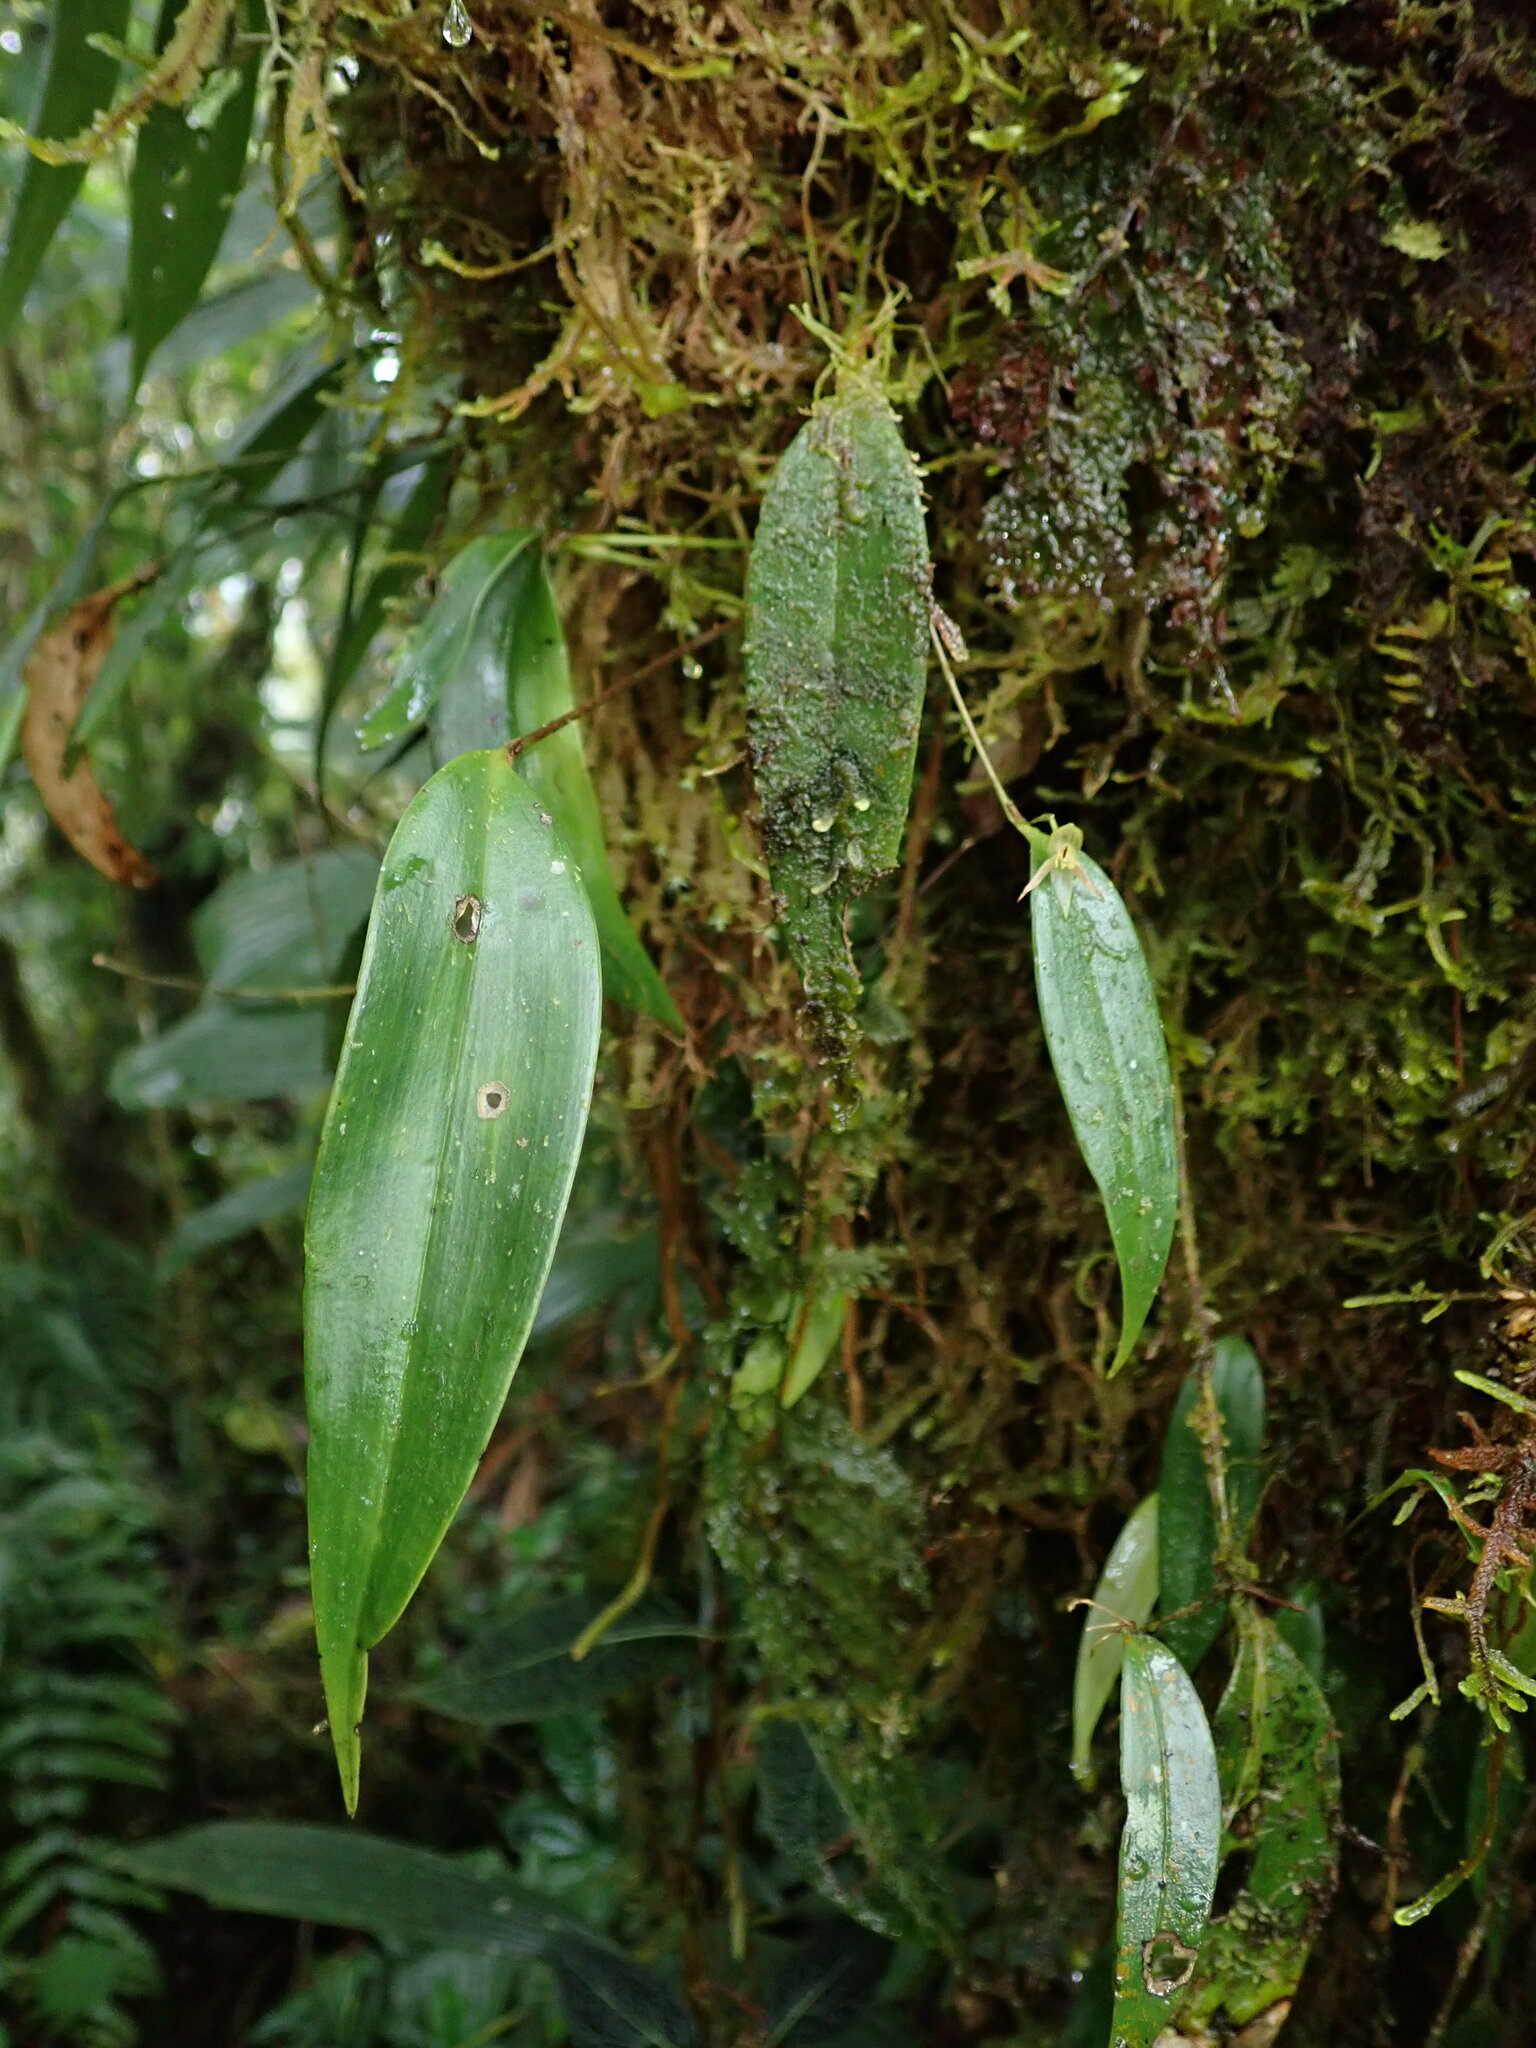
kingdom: Plantae
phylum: Tracheophyta
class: Liliopsida
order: Asparagales
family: Orchidaceae
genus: Pleurothallis
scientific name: Pleurothallis cernua
